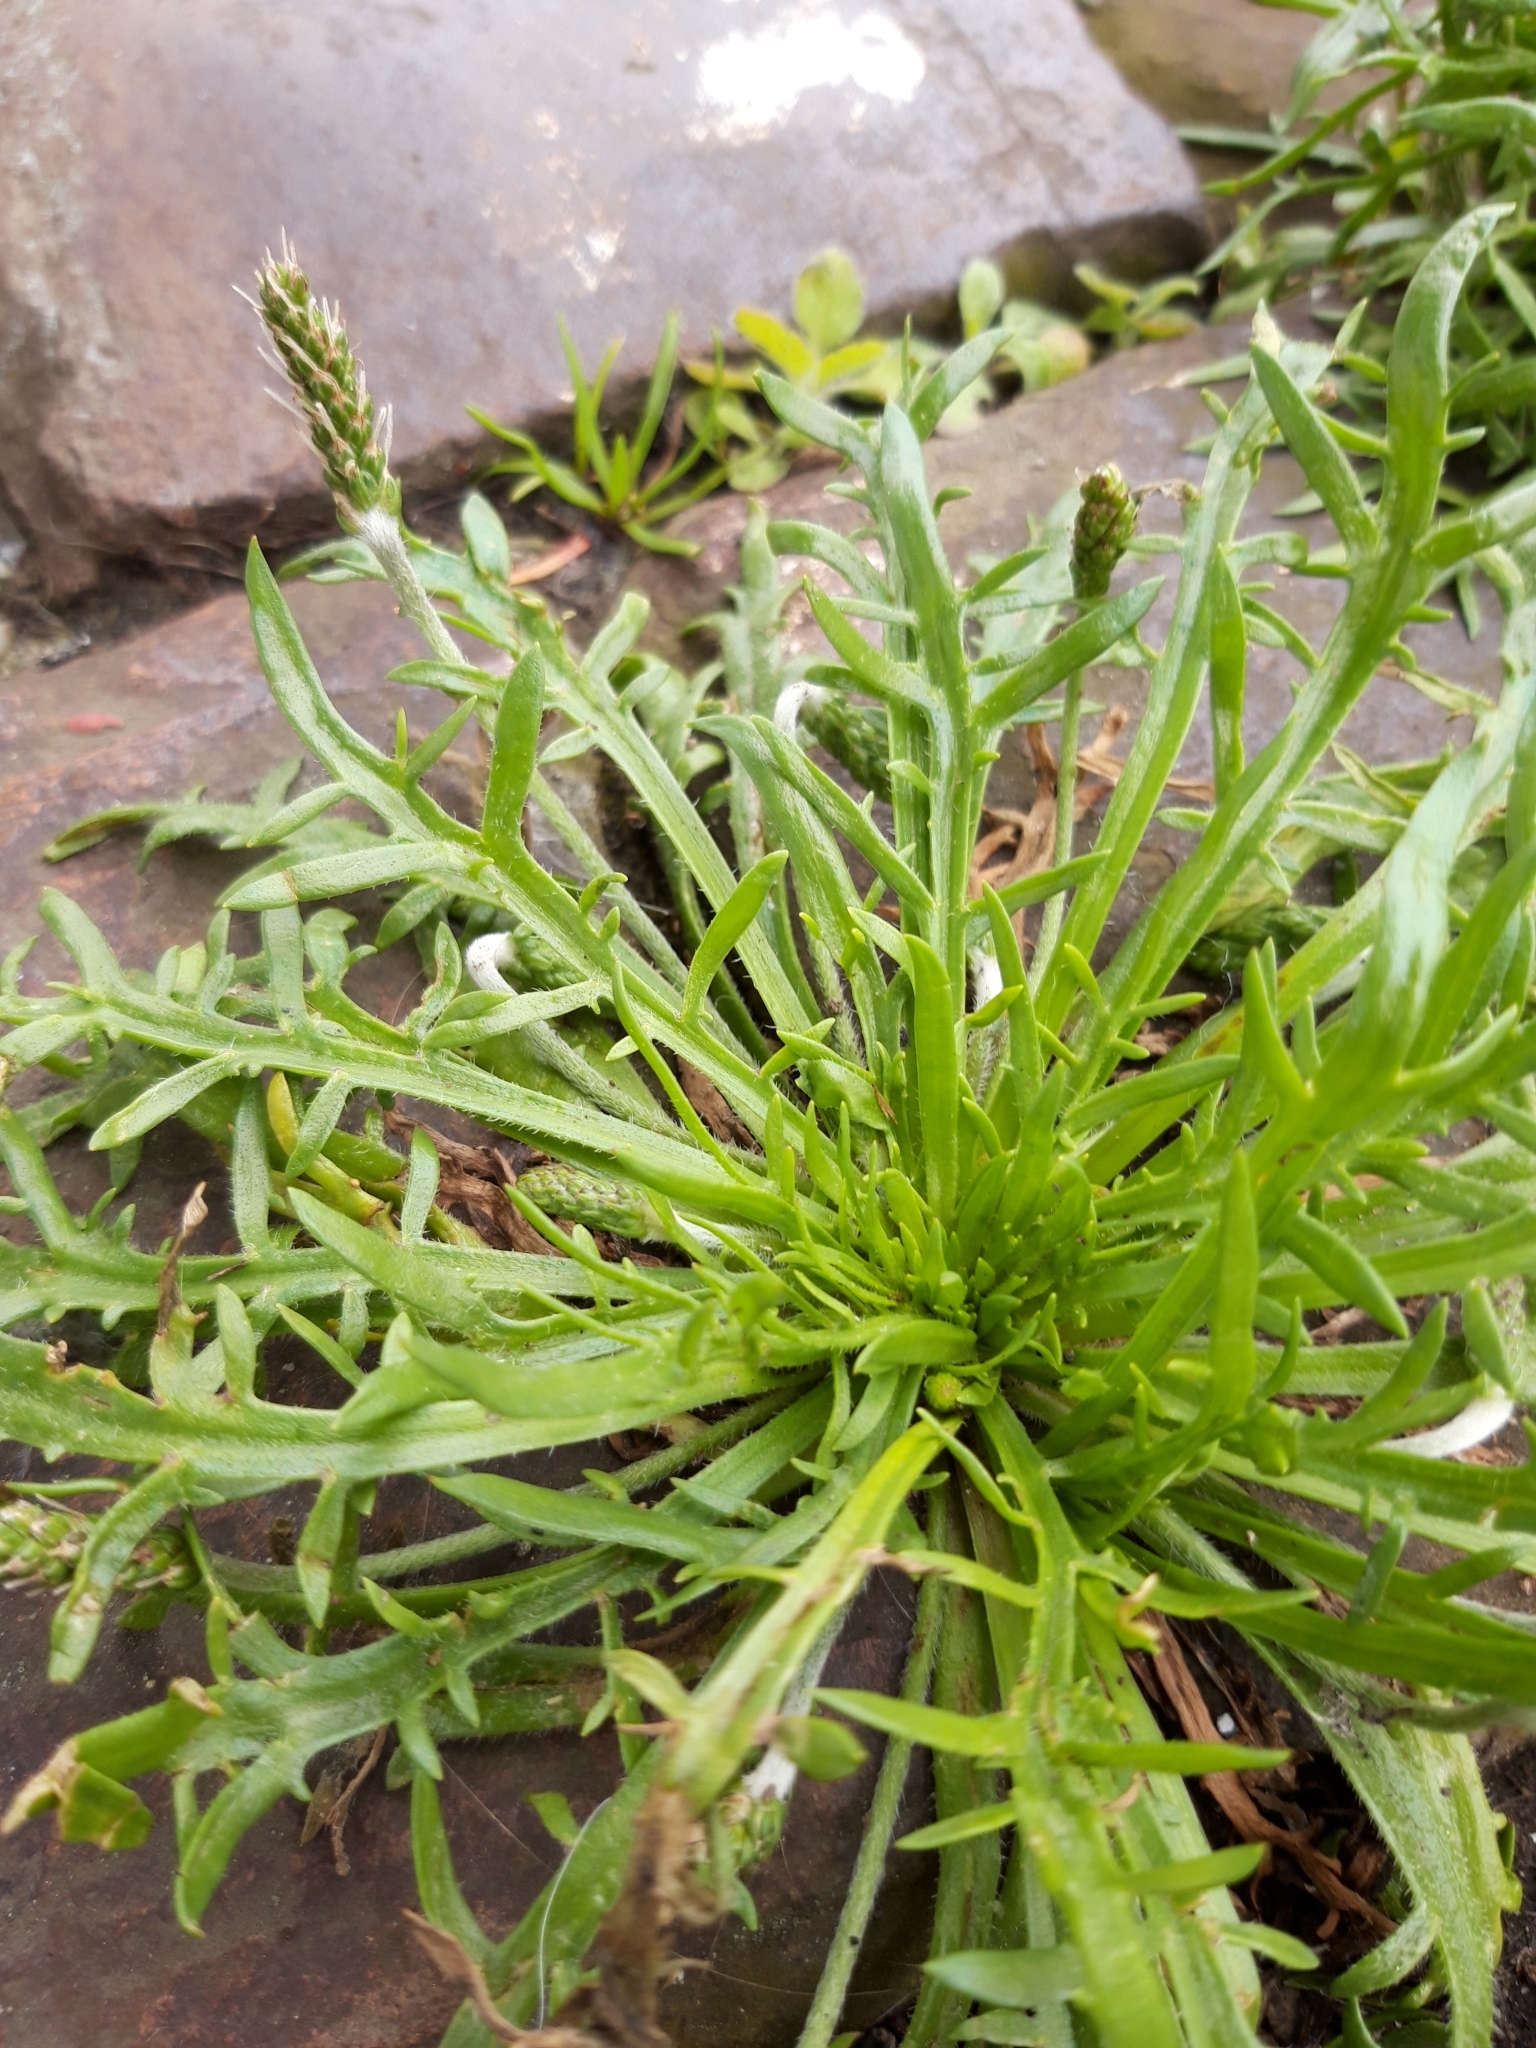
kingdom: Plantae
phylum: Tracheophyta
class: Magnoliopsida
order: Lamiales
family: Plantaginaceae
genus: Plantago
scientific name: Plantago coronopus
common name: Buck's-horn plantain
